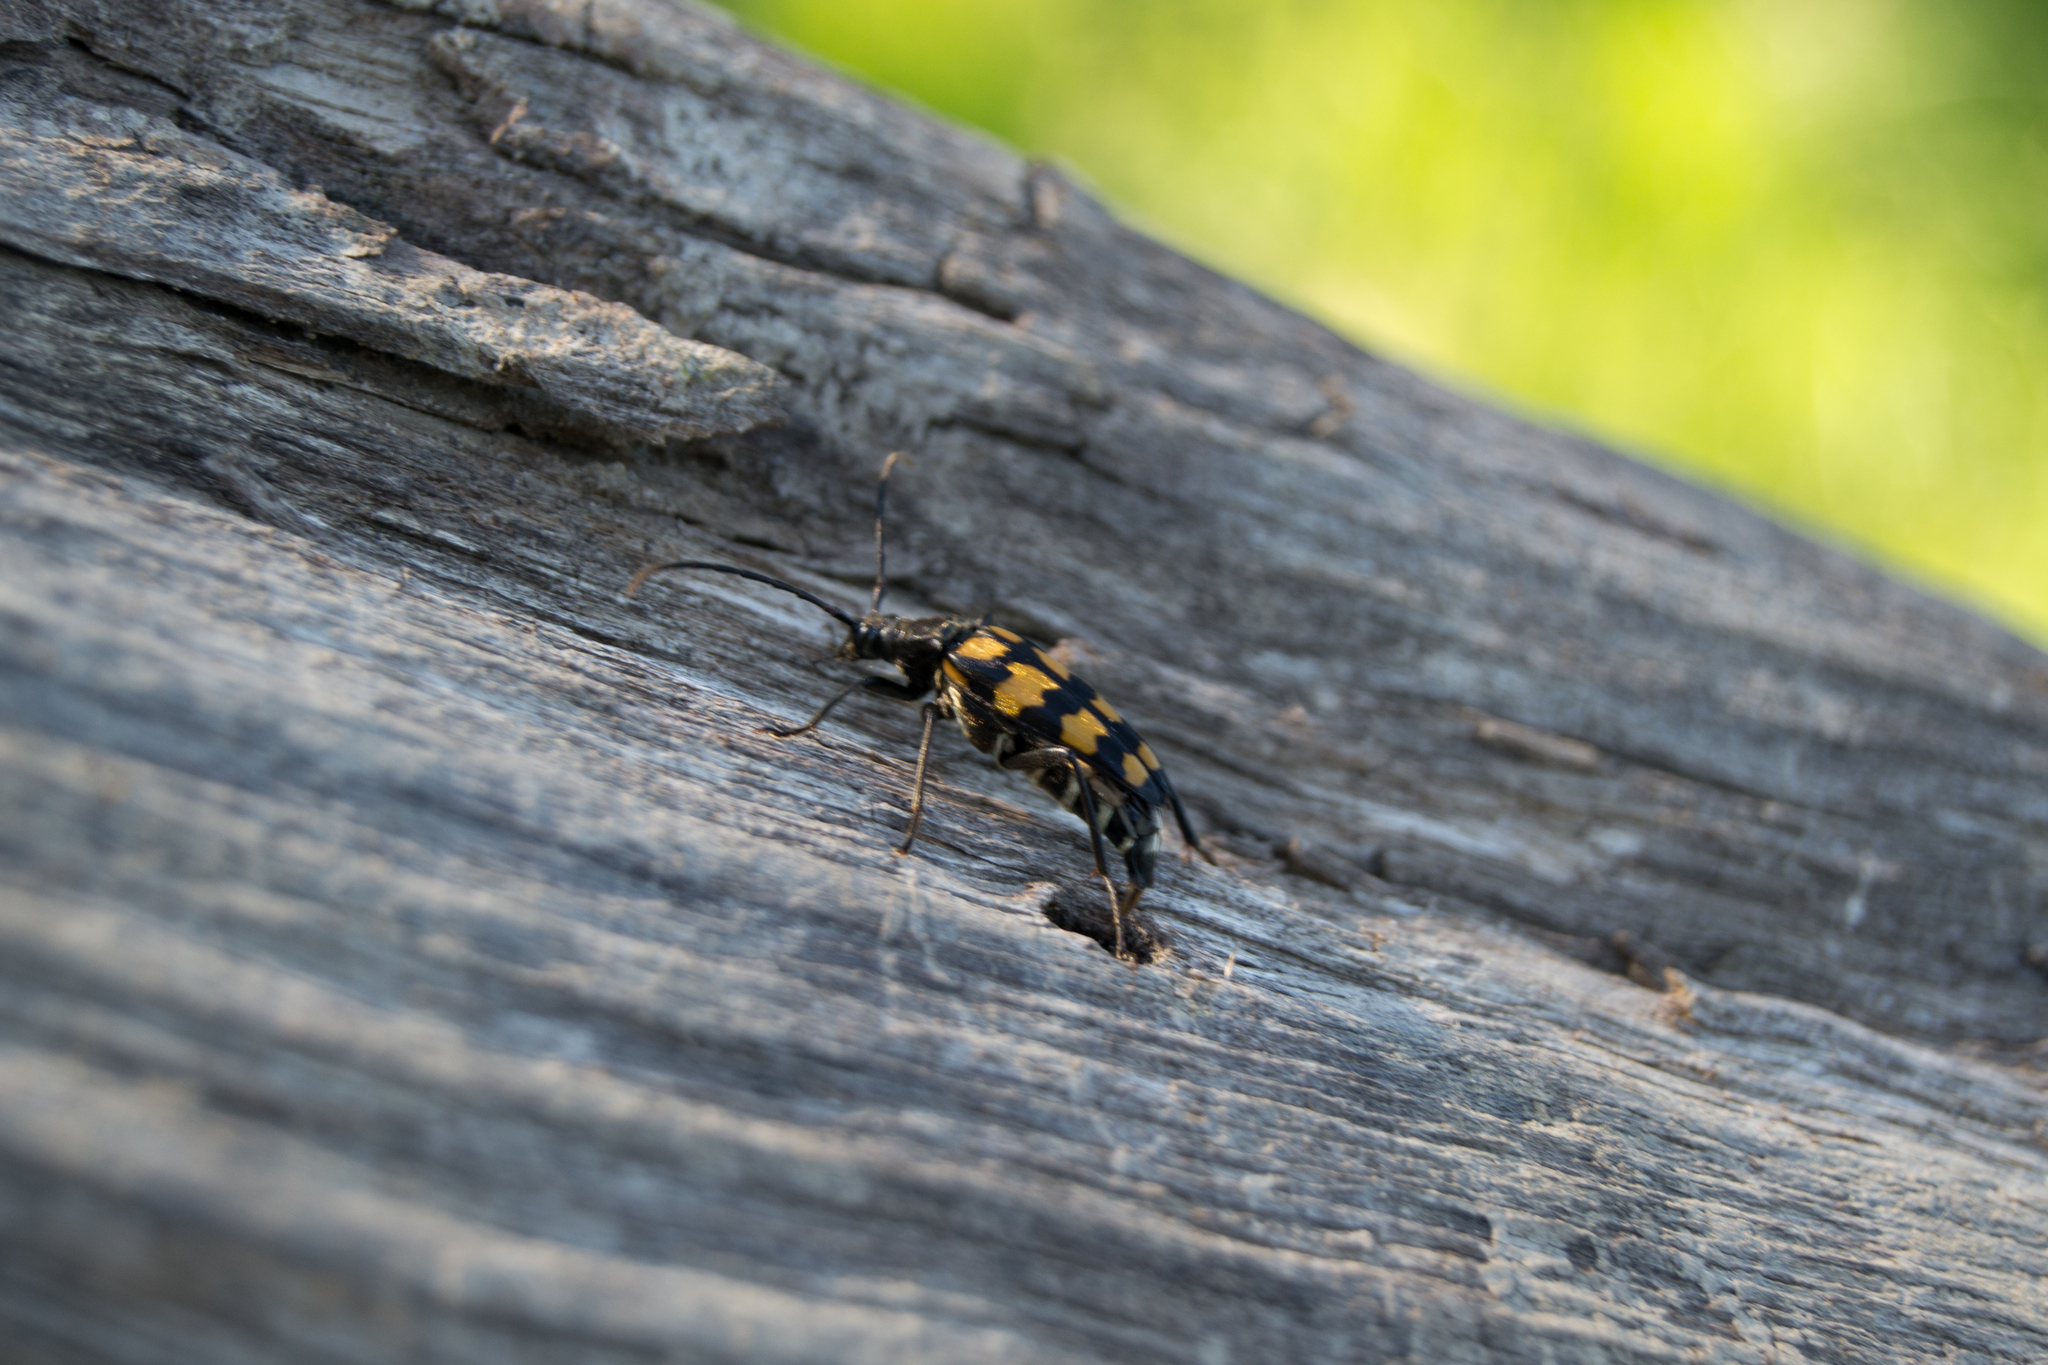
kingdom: Animalia
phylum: Arthropoda
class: Insecta
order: Coleoptera
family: Cerambycidae
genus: Leptura
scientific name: Leptura quadrifasciata
